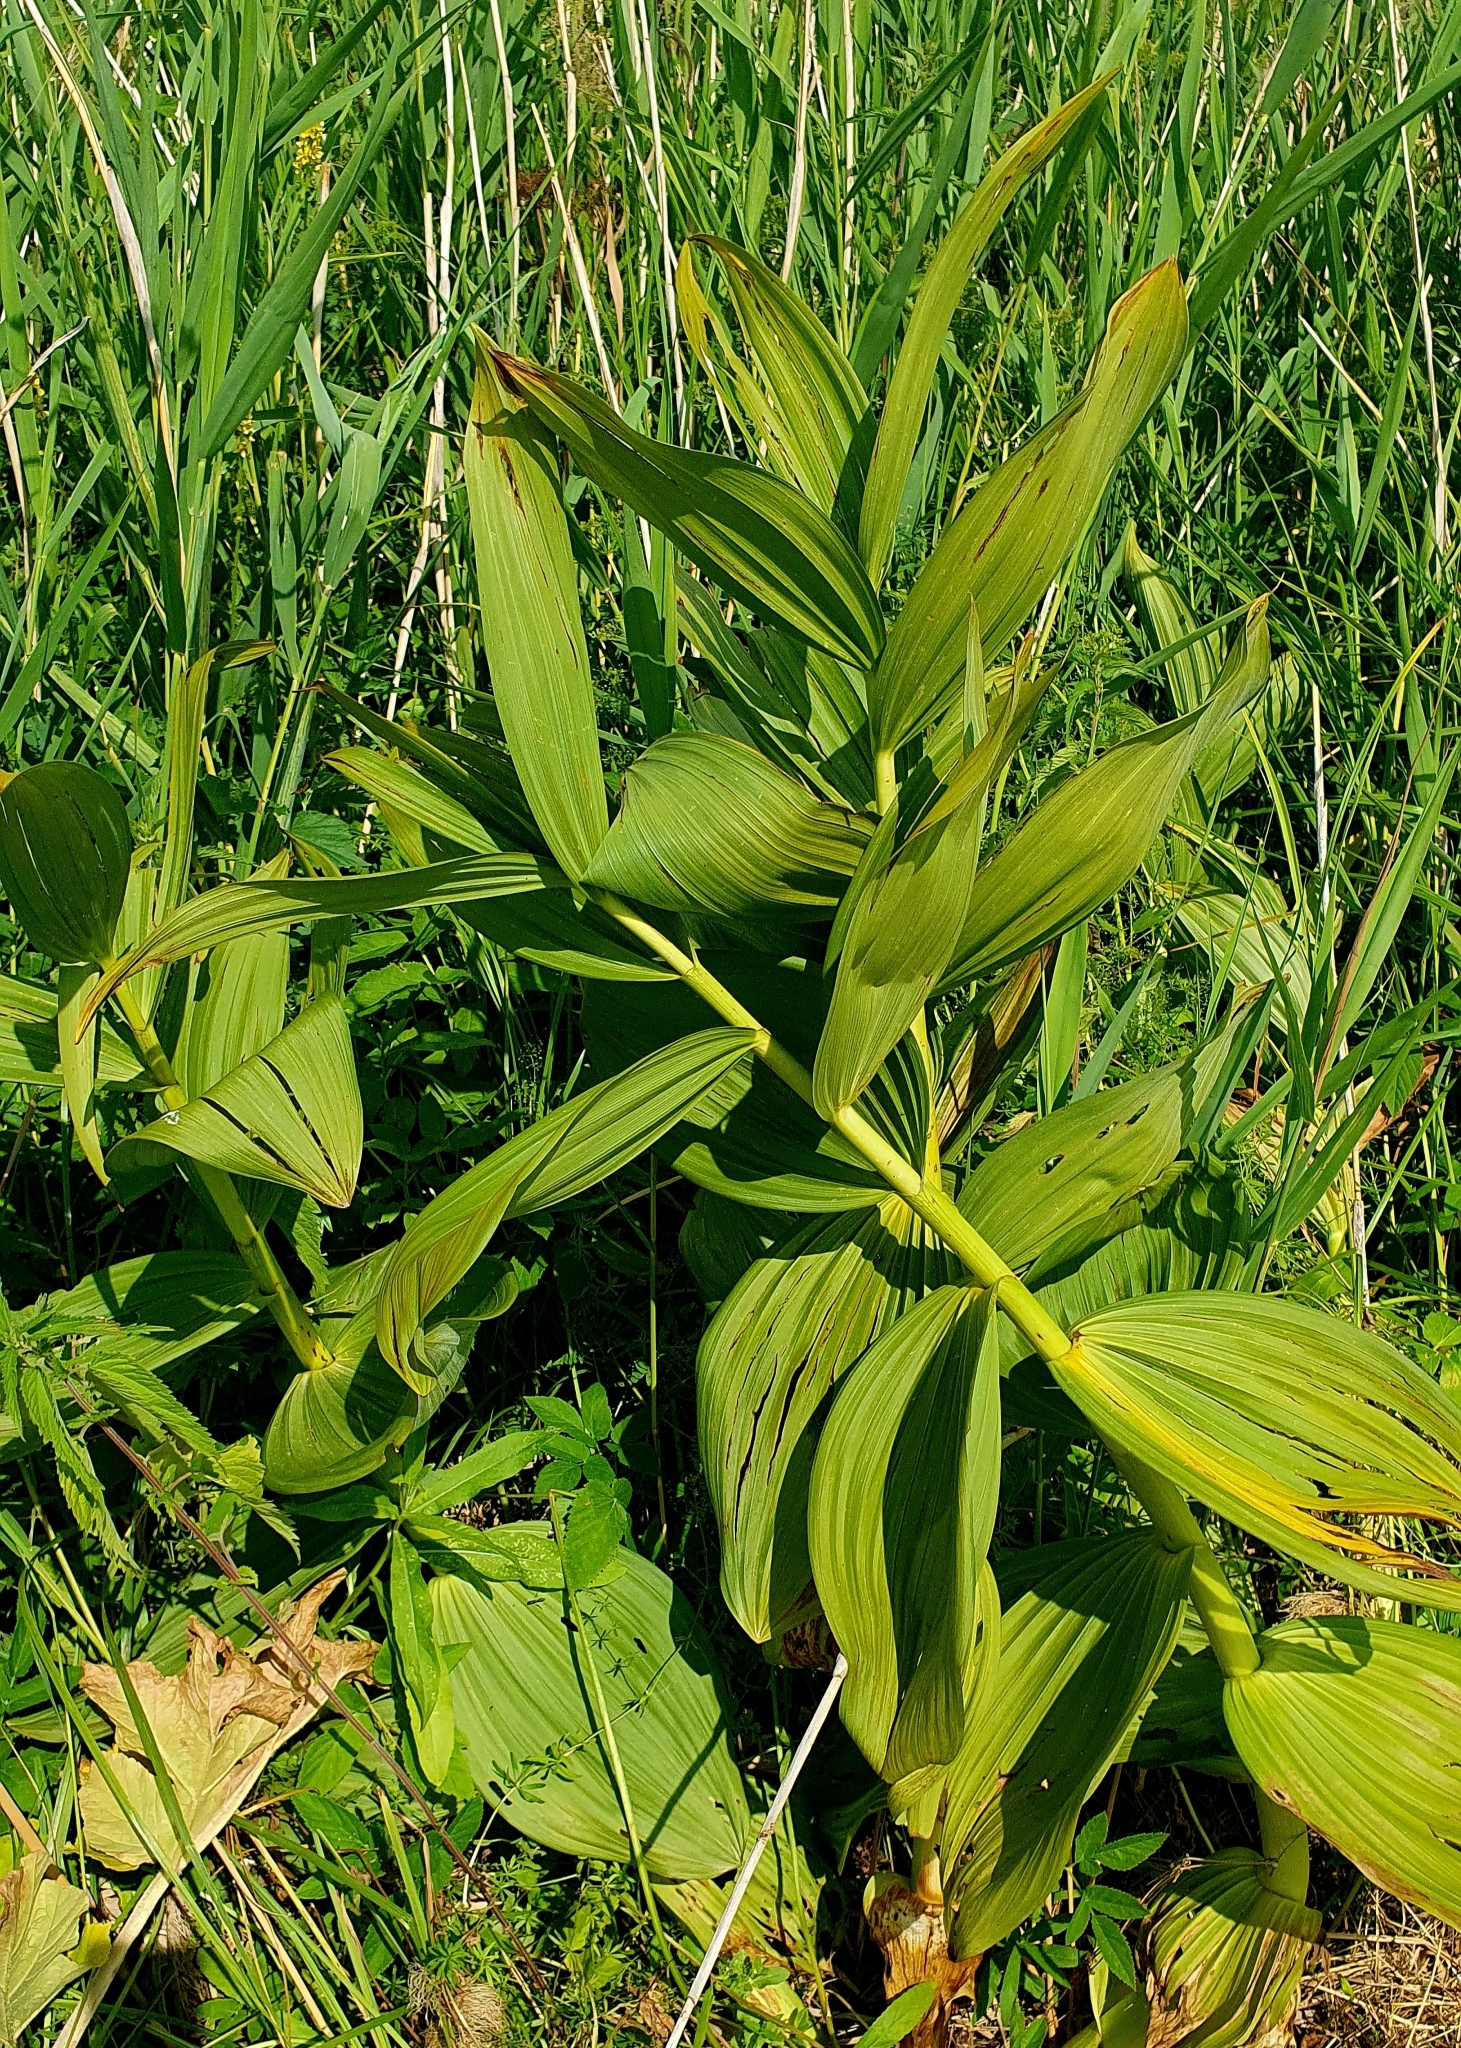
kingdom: Plantae
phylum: Tracheophyta
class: Liliopsida
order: Liliales
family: Melanthiaceae
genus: Veratrum
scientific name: Veratrum lobelianum
